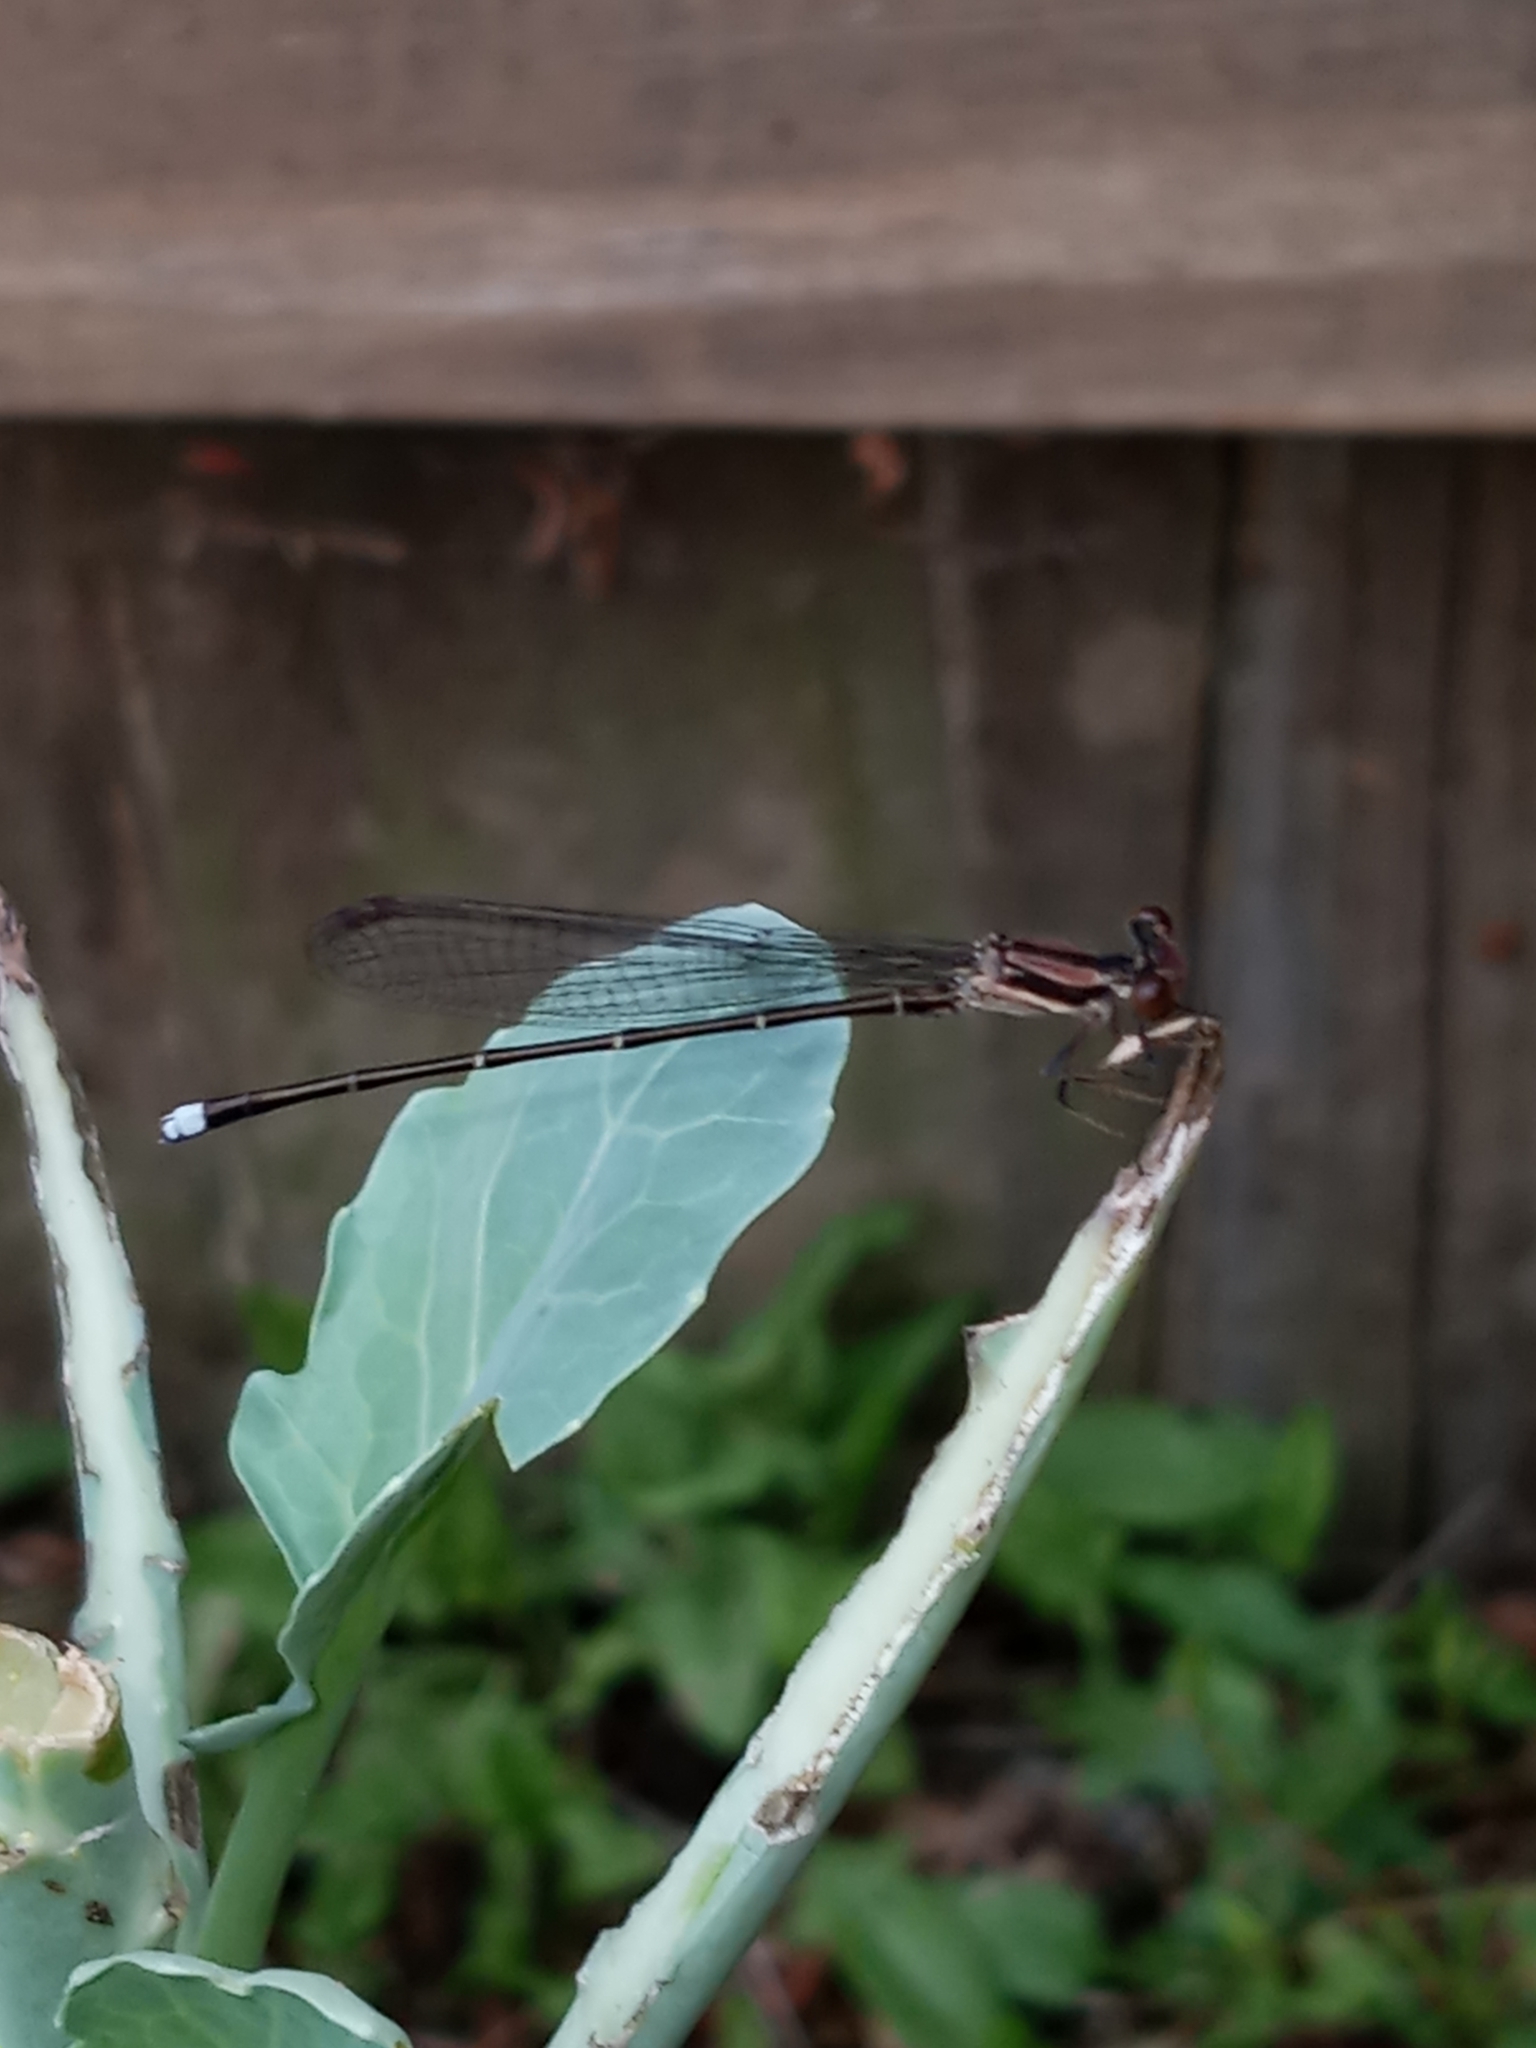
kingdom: Animalia
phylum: Arthropoda
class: Insecta
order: Odonata
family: Coenagrionidae
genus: Argia
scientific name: Argia tibialis
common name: Blue-tipped dancer
